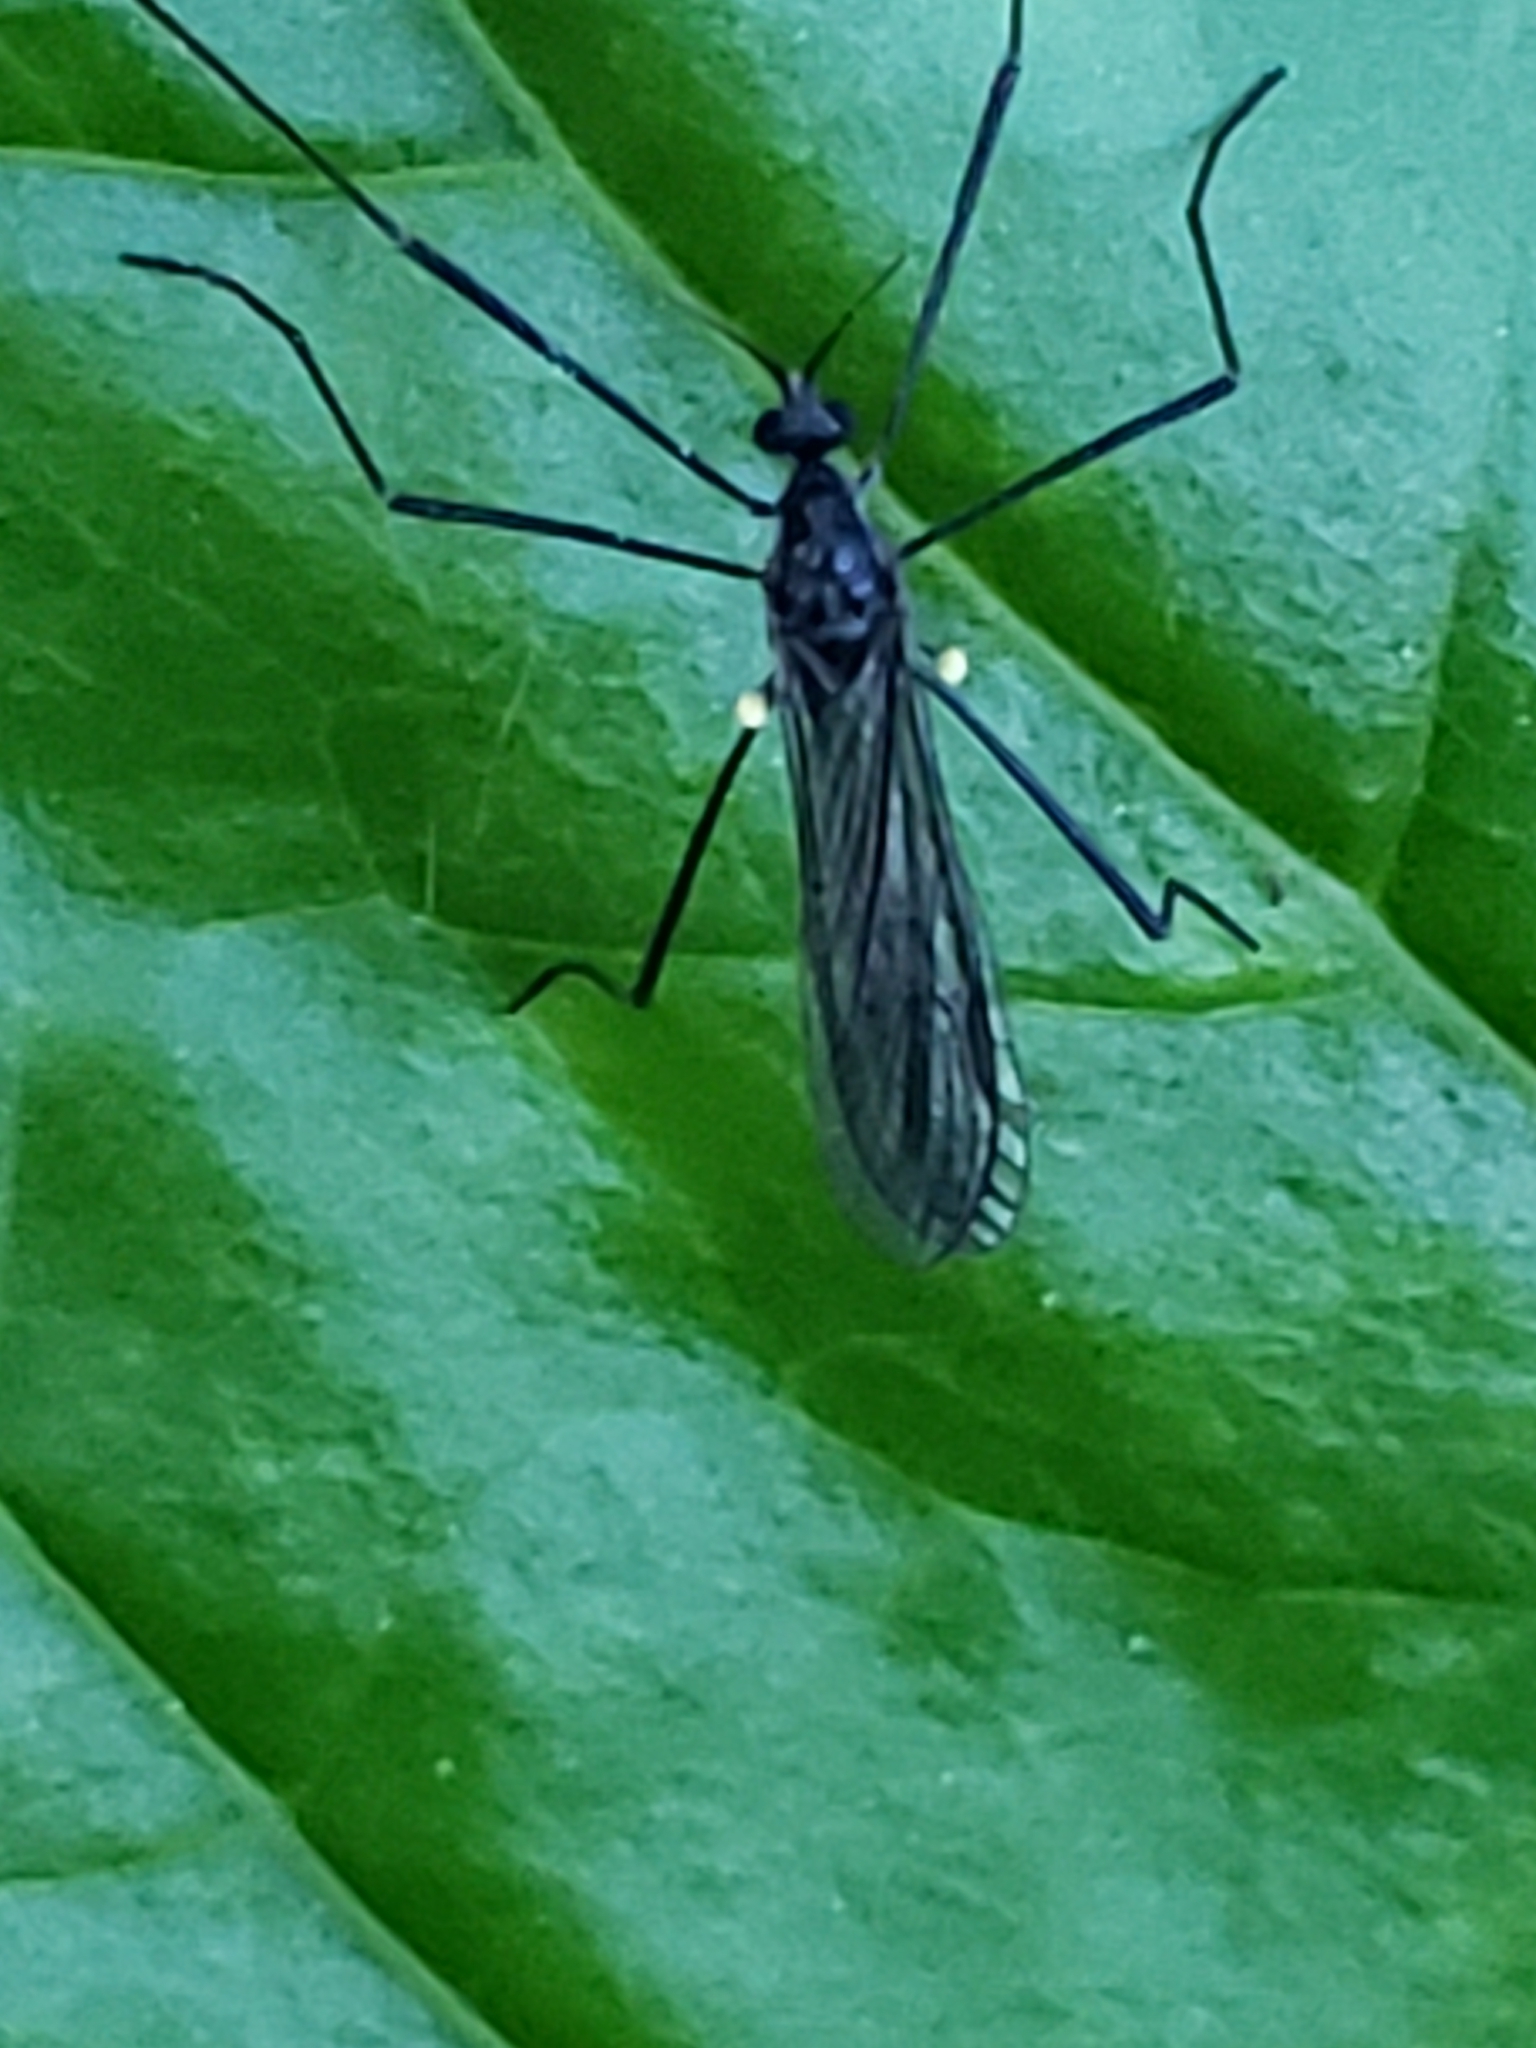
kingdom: Animalia
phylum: Arthropoda
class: Insecta
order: Diptera
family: Limoniidae
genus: Gnophomyia
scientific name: Gnophomyia tristissima
